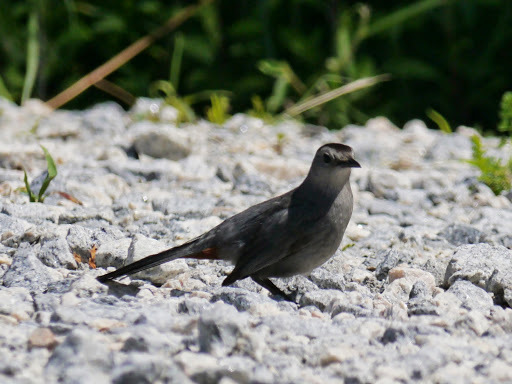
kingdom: Animalia
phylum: Chordata
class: Aves
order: Passeriformes
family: Mimidae
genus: Dumetella
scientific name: Dumetella carolinensis
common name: Gray catbird
